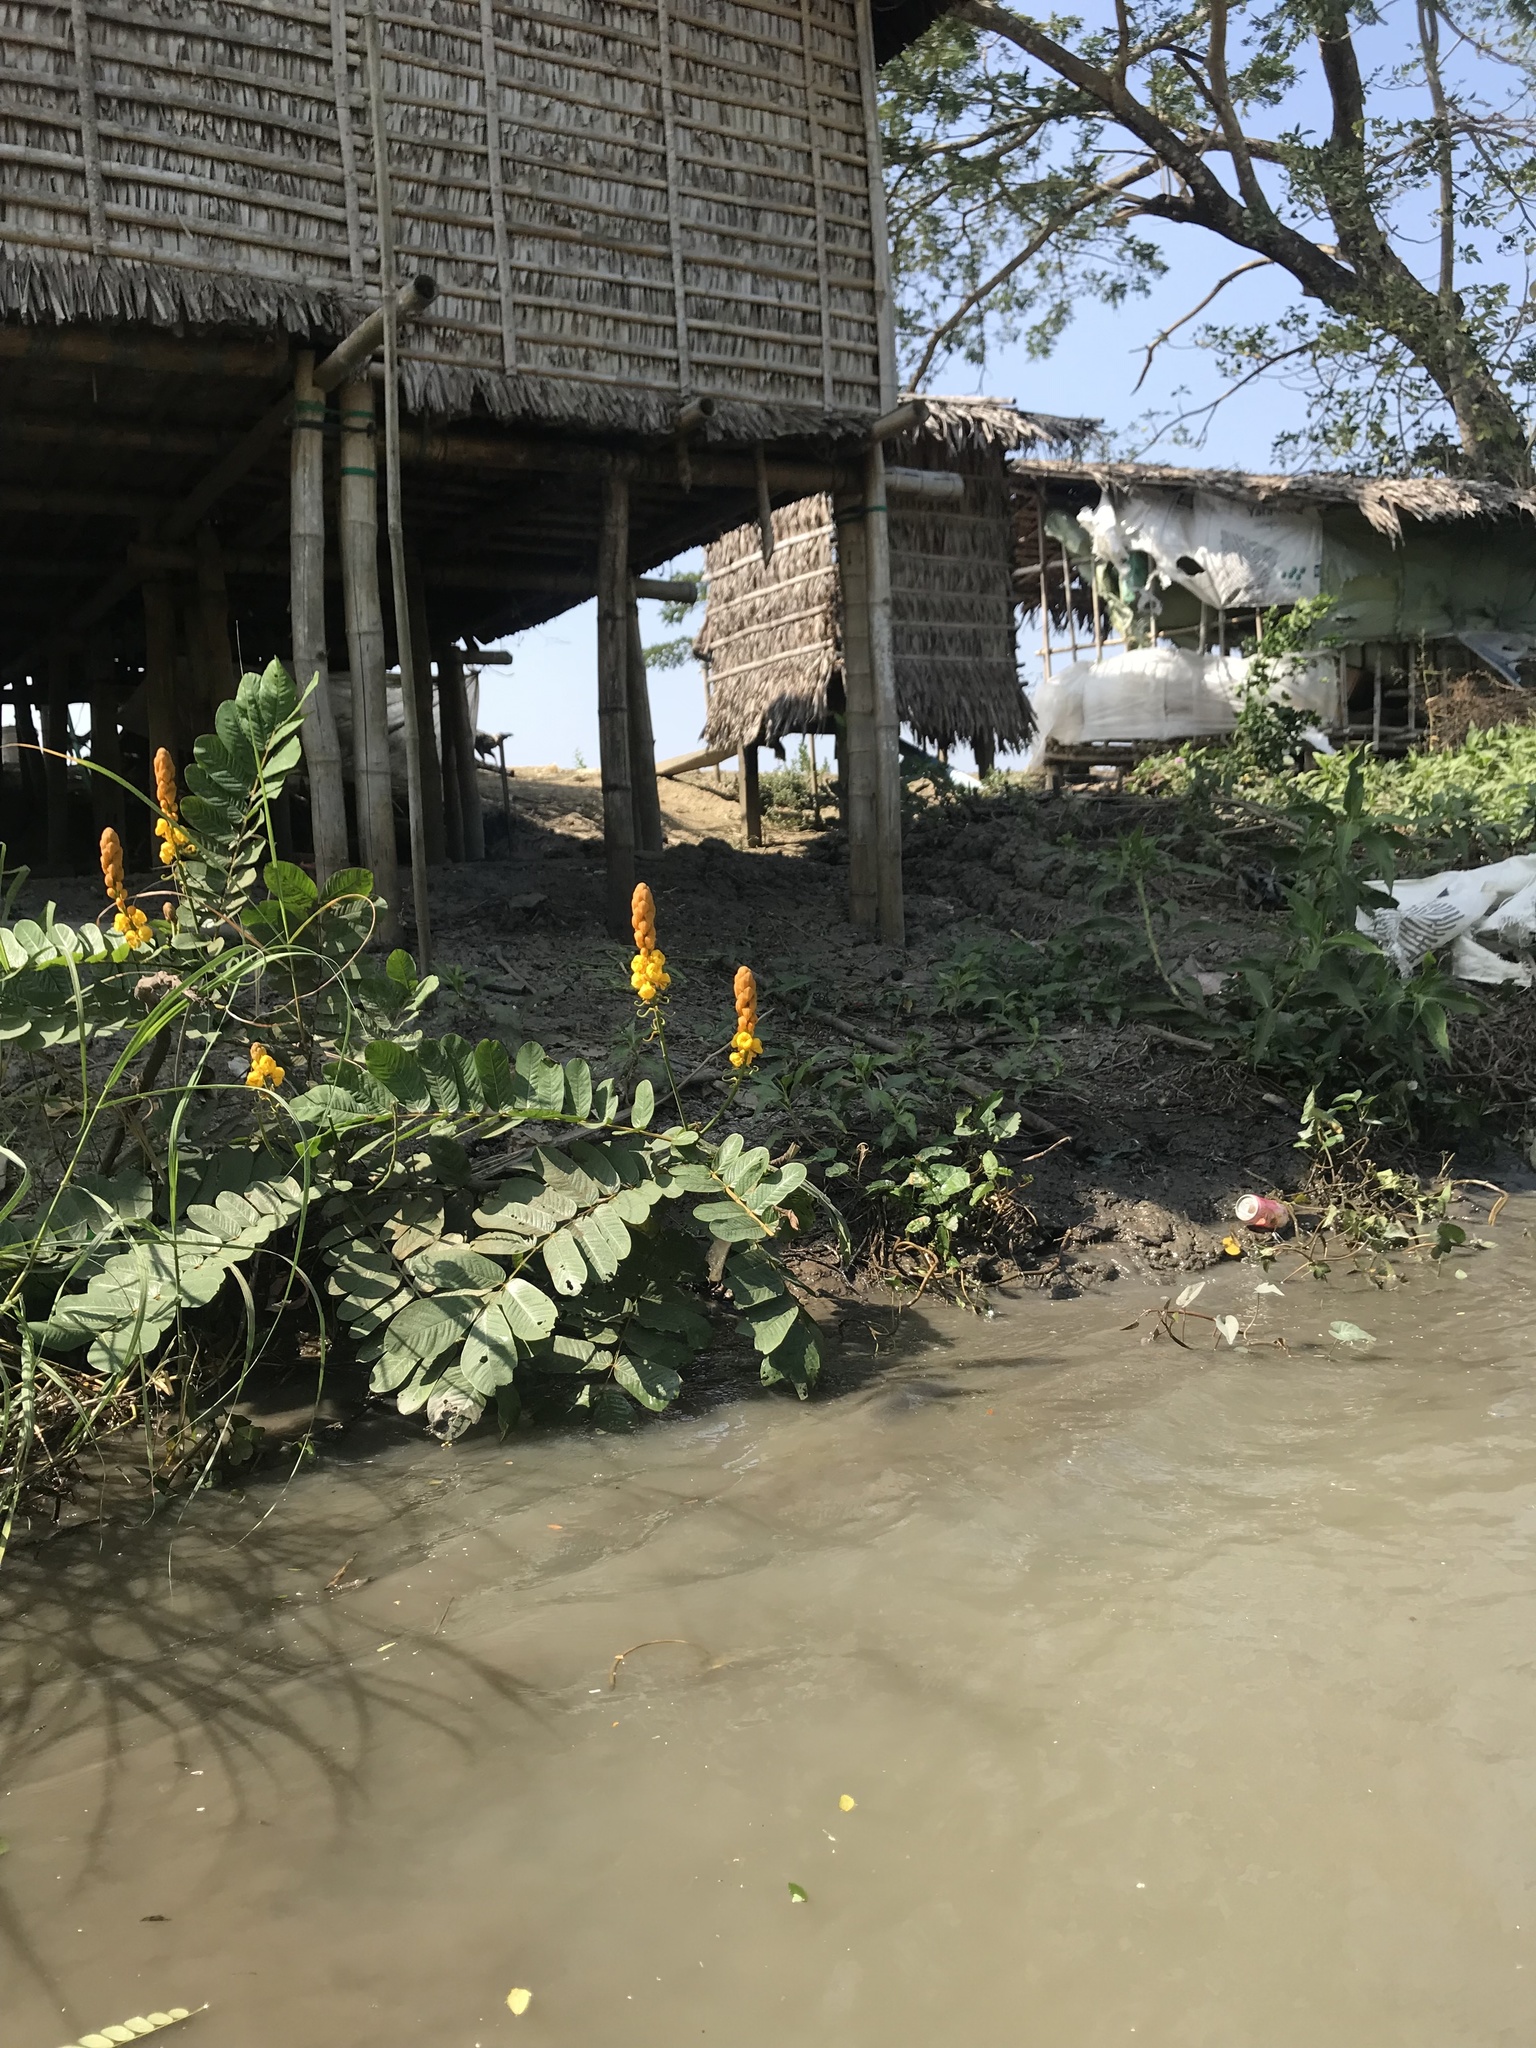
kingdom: Plantae
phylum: Tracheophyta
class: Magnoliopsida
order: Fabales
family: Fabaceae
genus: Senna
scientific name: Senna alata
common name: Emperor's candlesticks
